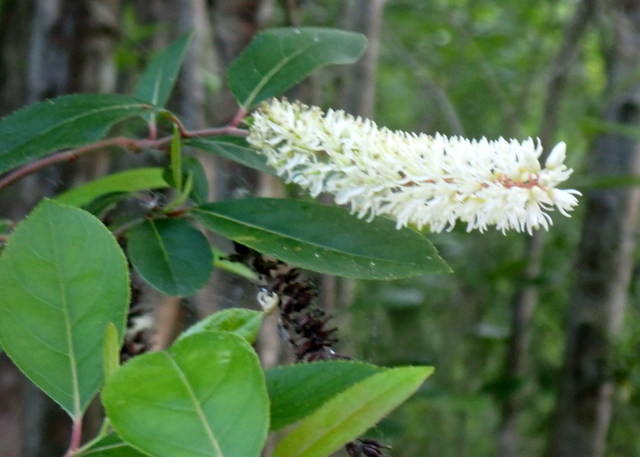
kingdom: Plantae
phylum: Tracheophyta
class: Magnoliopsida
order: Saxifragales
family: Iteaceae
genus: Itea
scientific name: Itea virginica
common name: Sweetspire
